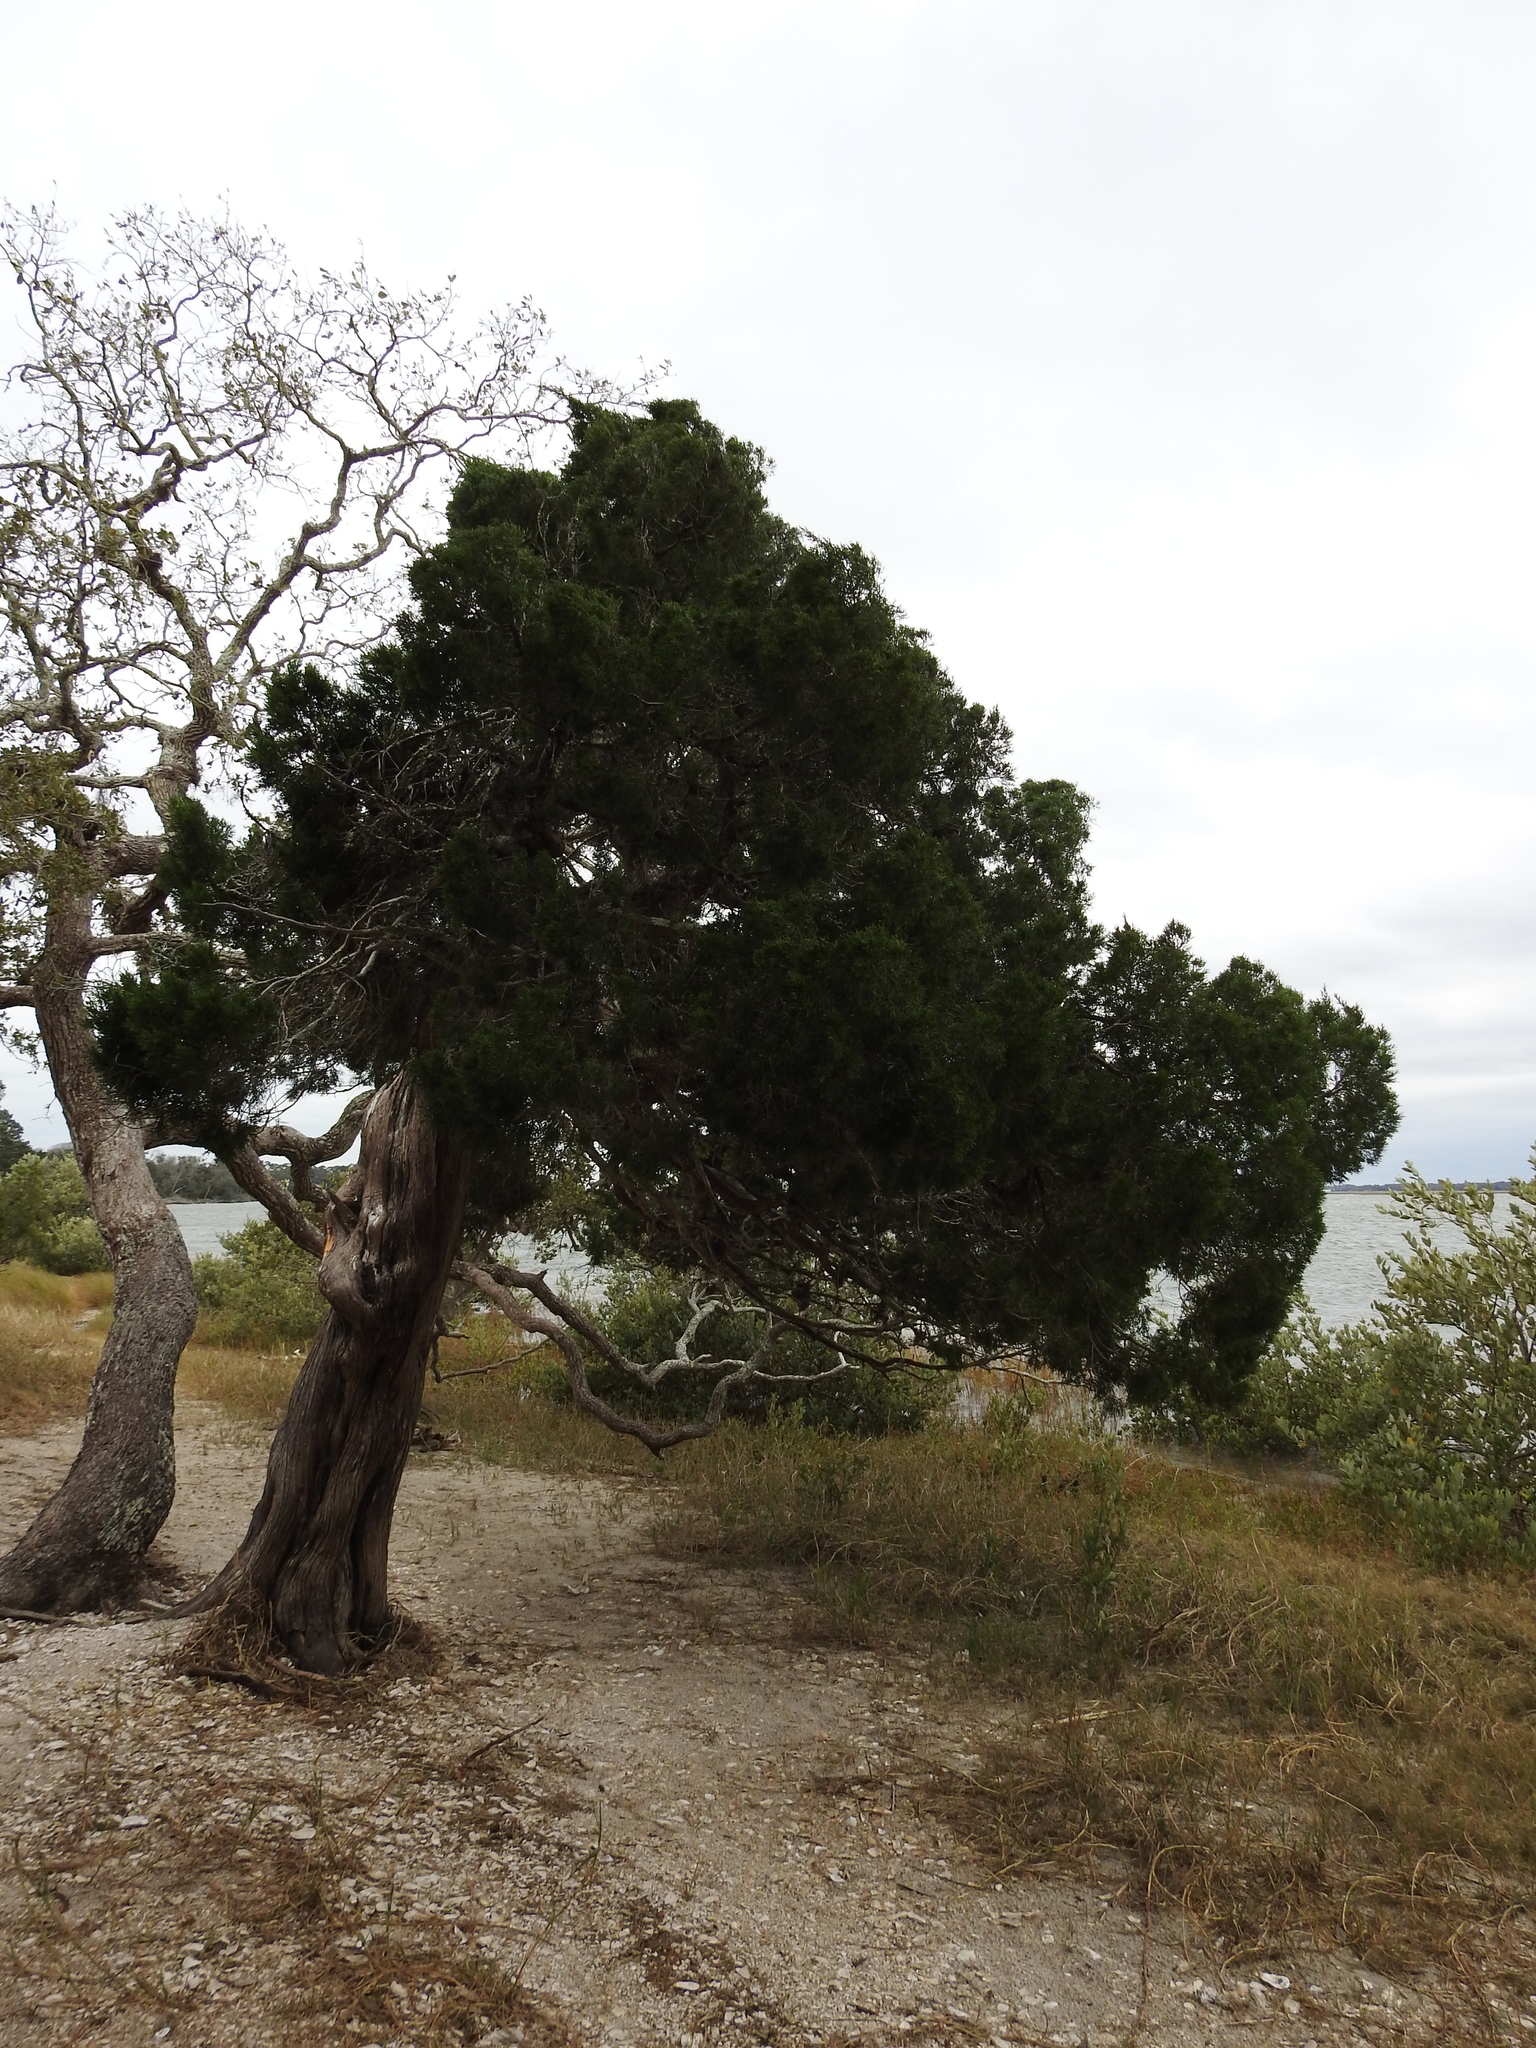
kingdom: Plantae
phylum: Tracheophyta
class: Pinopsida
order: Pinales
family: Cupressaceae
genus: Juniperus
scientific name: Juniperus virginiana
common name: Red juniper
